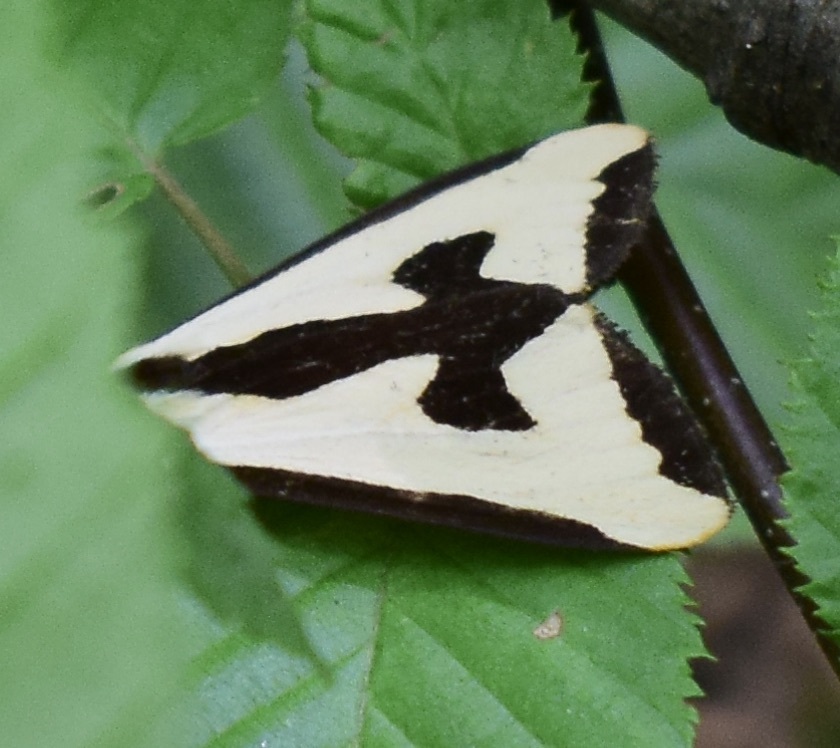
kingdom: Animalia
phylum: Arthropoda
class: Insecta
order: Lepidoptera
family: Erebidae
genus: Haploa
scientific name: Haploa clymene
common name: Clymene moth
